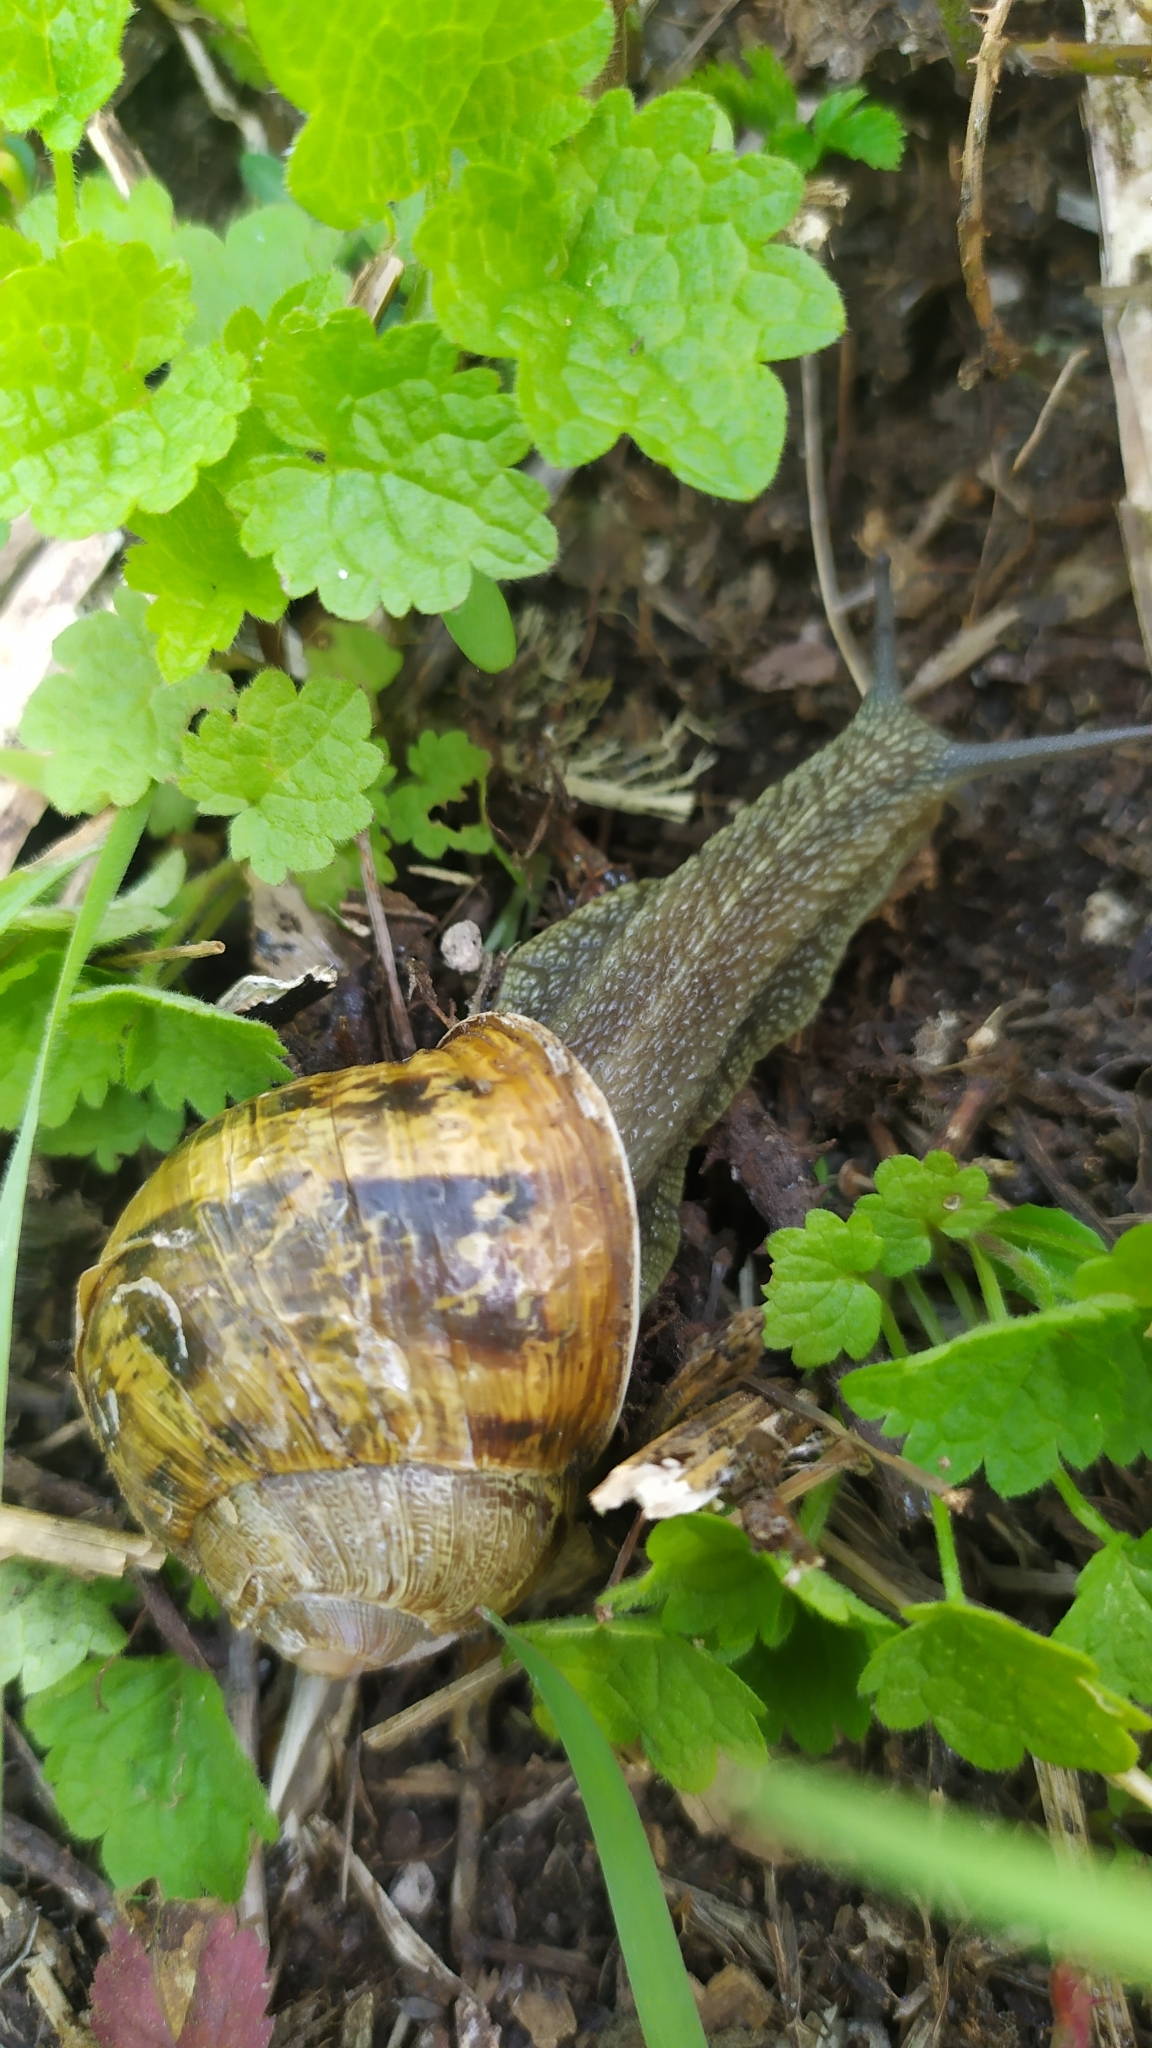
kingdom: Animalia
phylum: Mollusca
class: Gastropoda
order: Stylommatophora
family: Helicidae
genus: Cornu
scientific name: Cornu aspersum
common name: Brown garden snail
